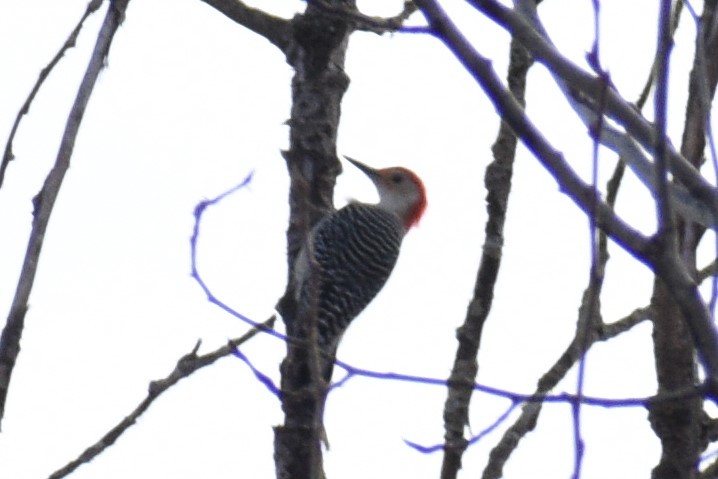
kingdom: Animalia
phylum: Chordata
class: Aves
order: Piciformes
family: Picidae
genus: Melanerpes
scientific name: Melanerpes carolinus
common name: Red-bellied woodpecker
